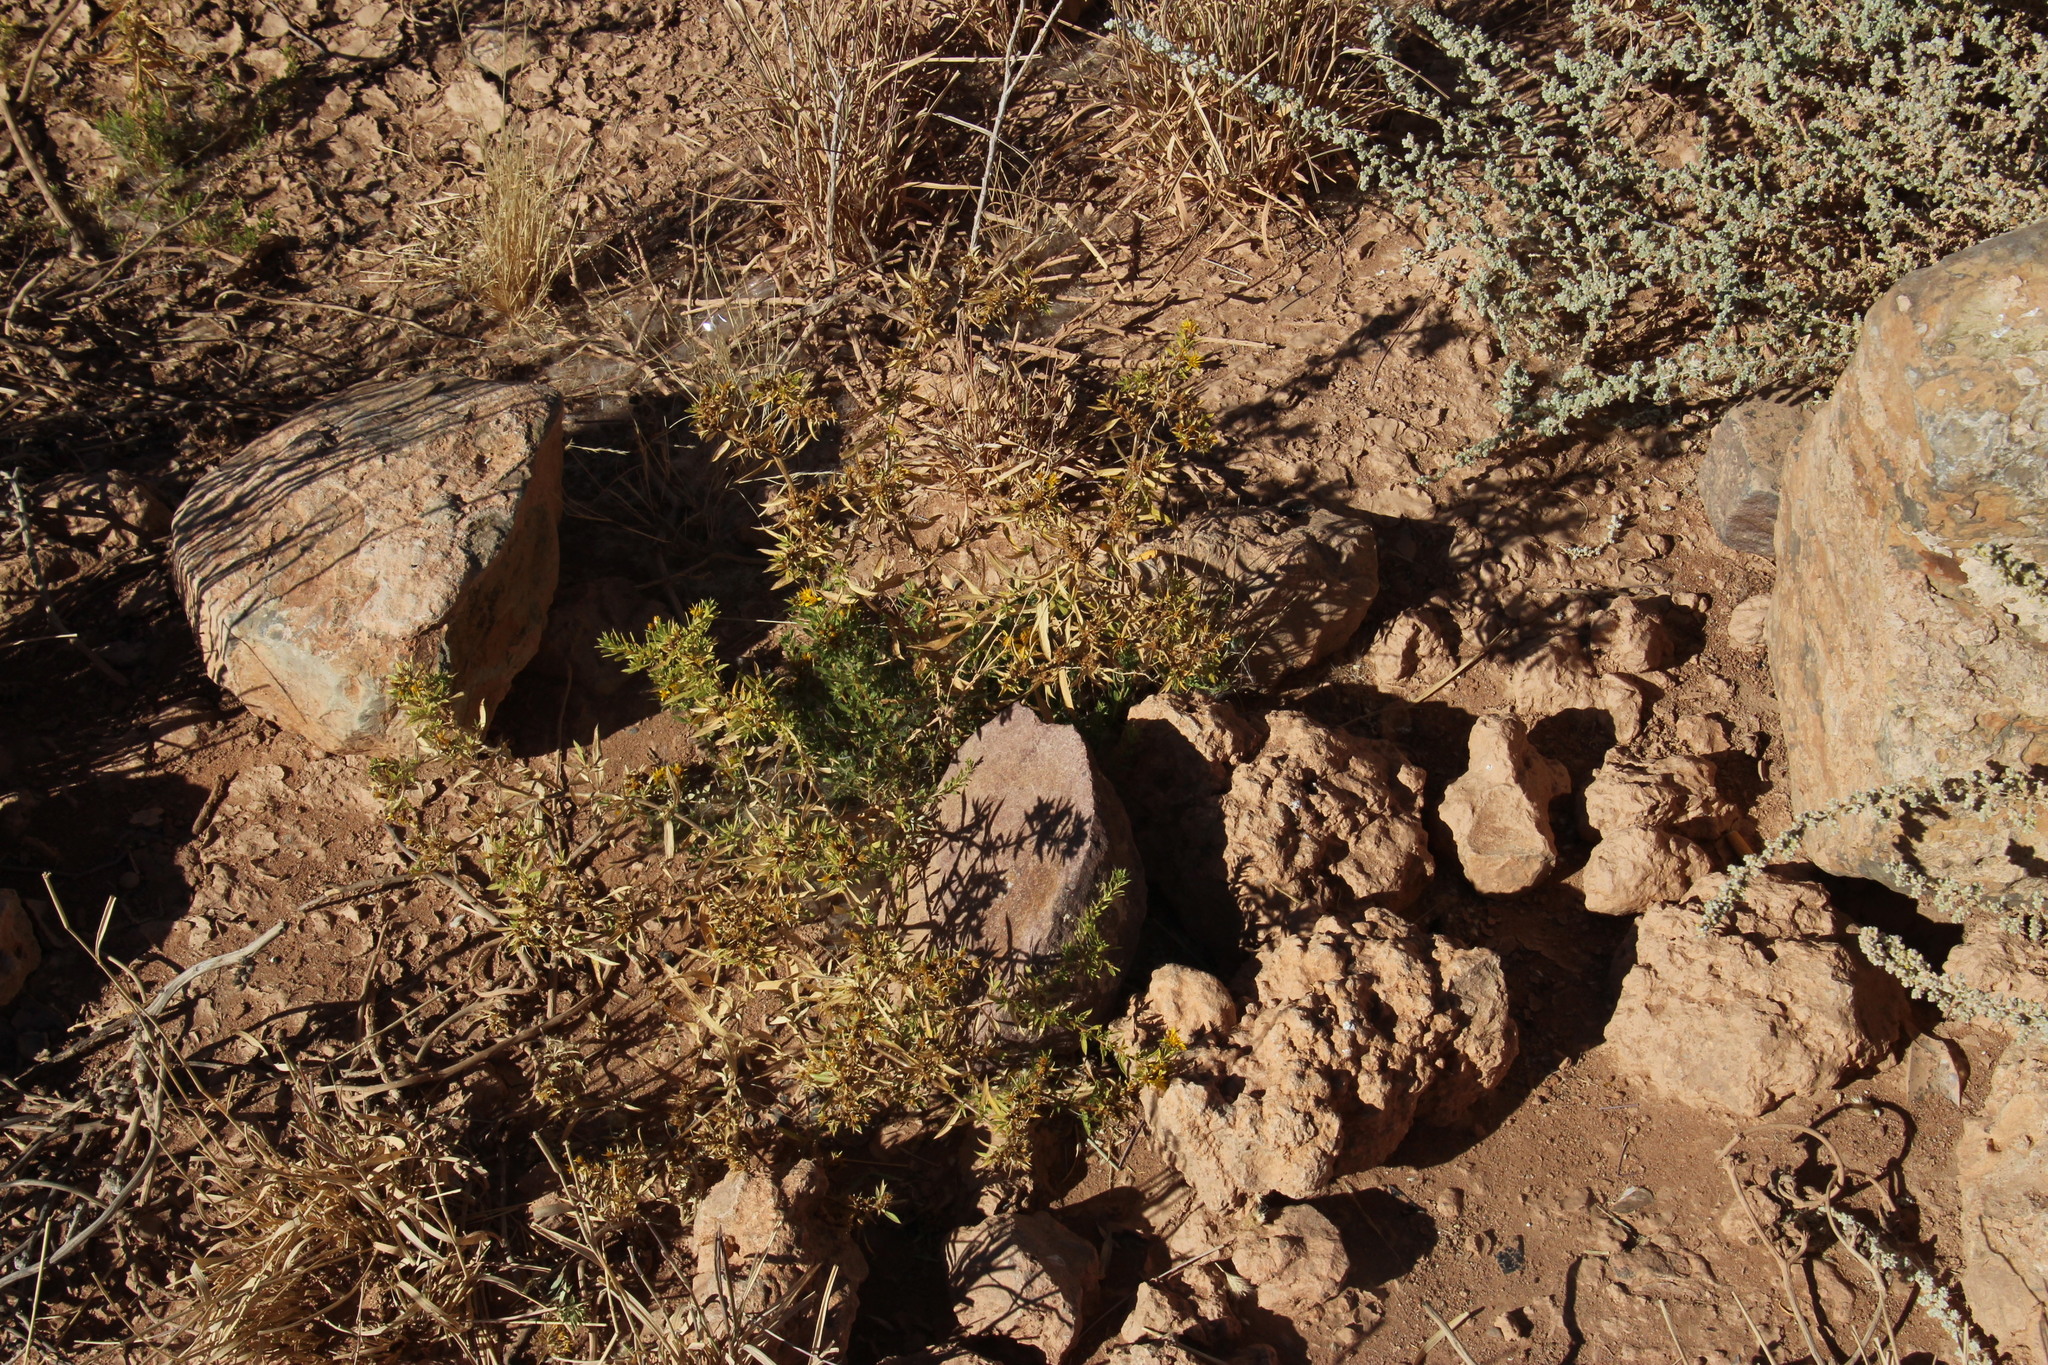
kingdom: Plantae
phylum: Tracheophyta
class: Magnoliopsida
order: Asterales
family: Asteraceae
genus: Geigeria
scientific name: Geigeria pectidea
